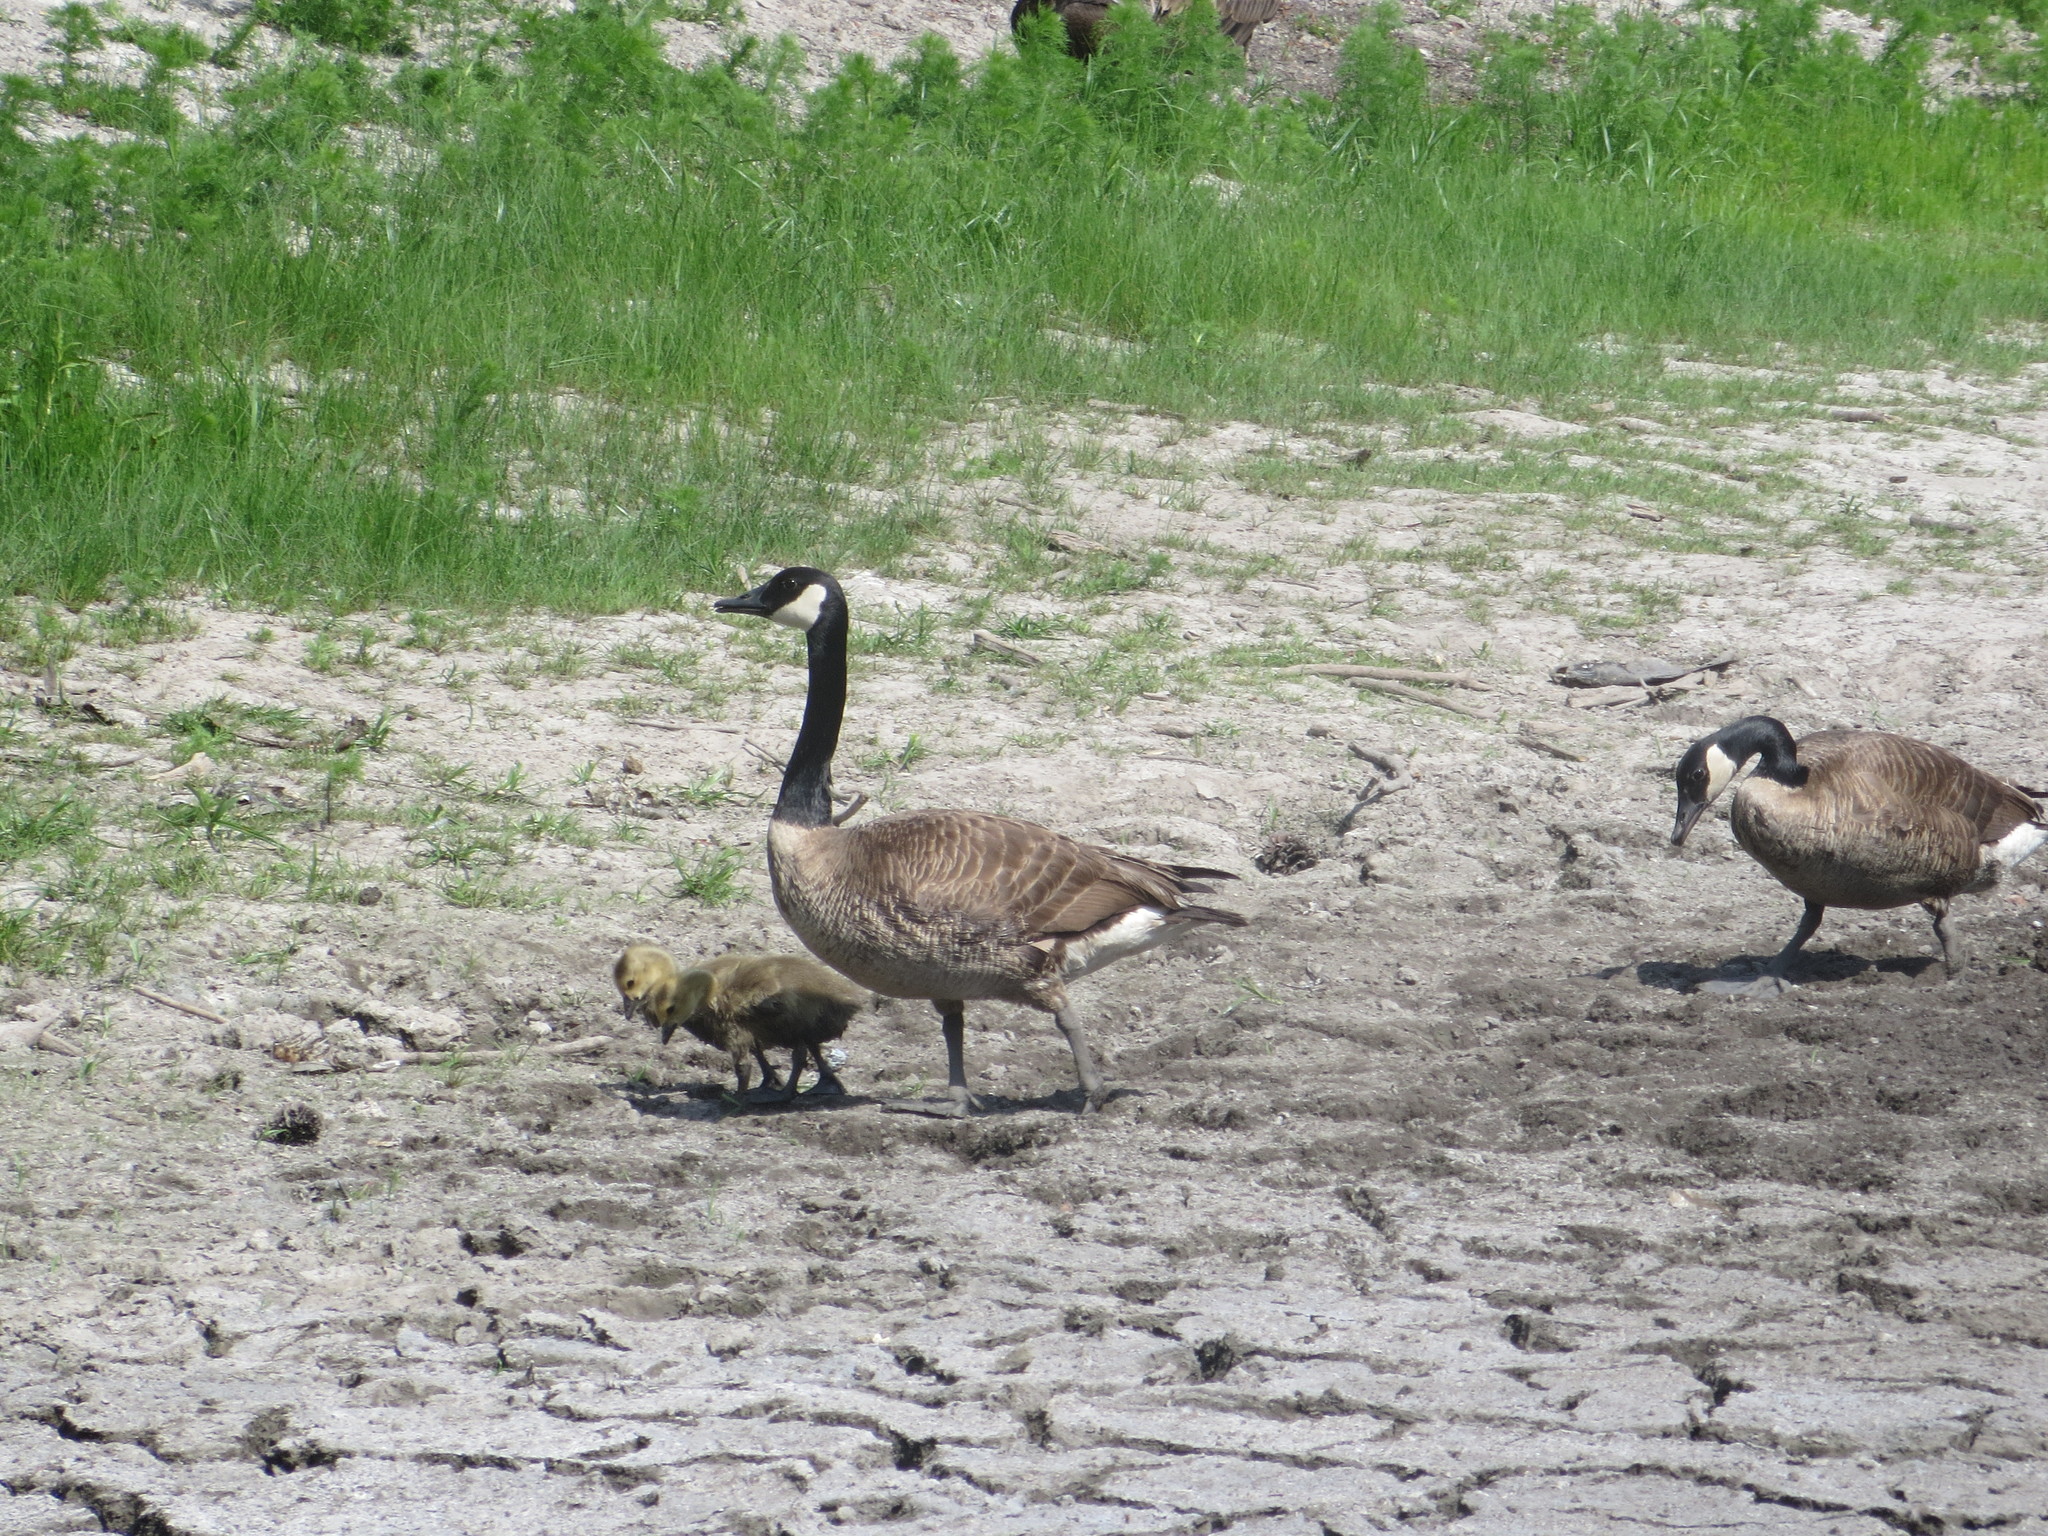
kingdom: Animalia
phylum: Chordata
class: Aves
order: Anseriformes
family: Anatidae
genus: Branta
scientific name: Branta canadensis
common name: Canada goose
